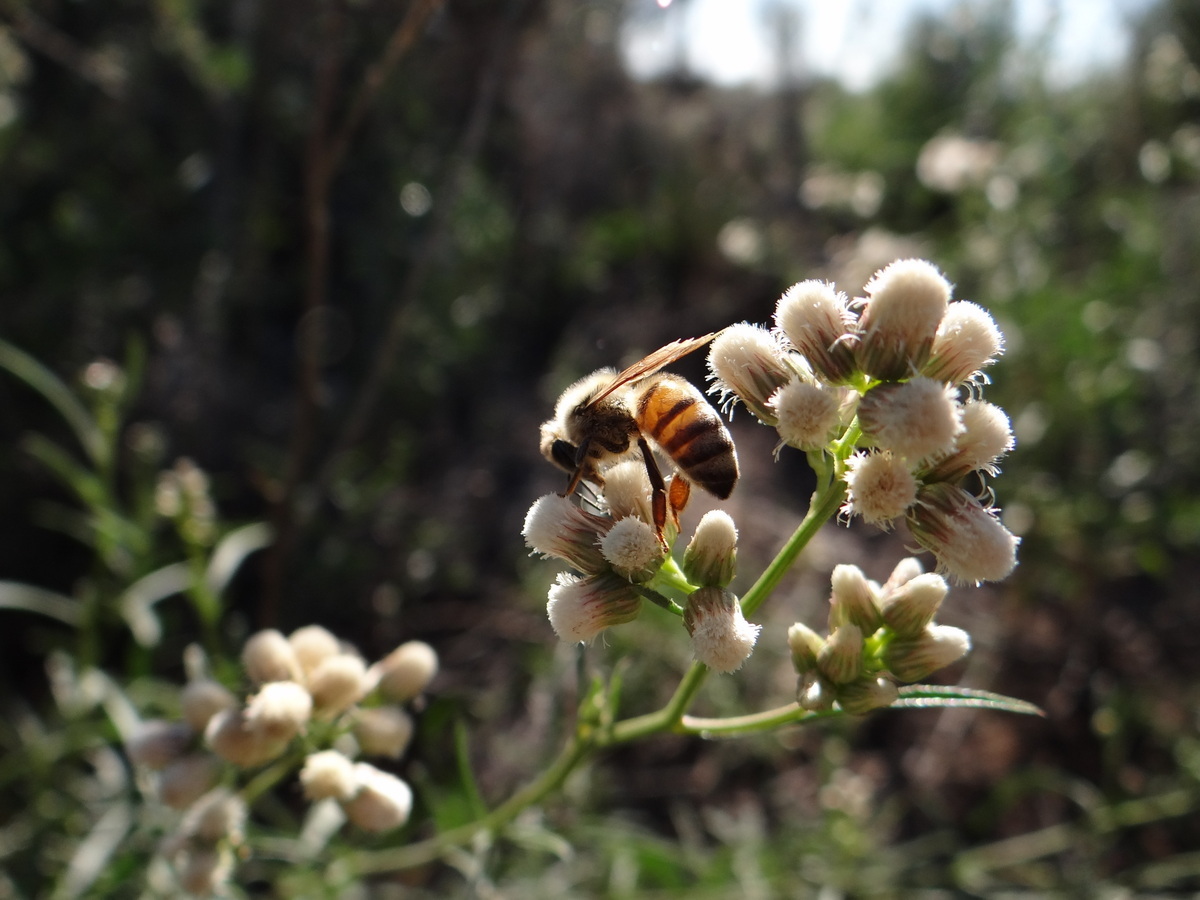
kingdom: Animalia
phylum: Arthropoda
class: Insecta
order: Hymenoptera
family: Apidae
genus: Apis
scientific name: Apis mellifera
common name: Honey bee
